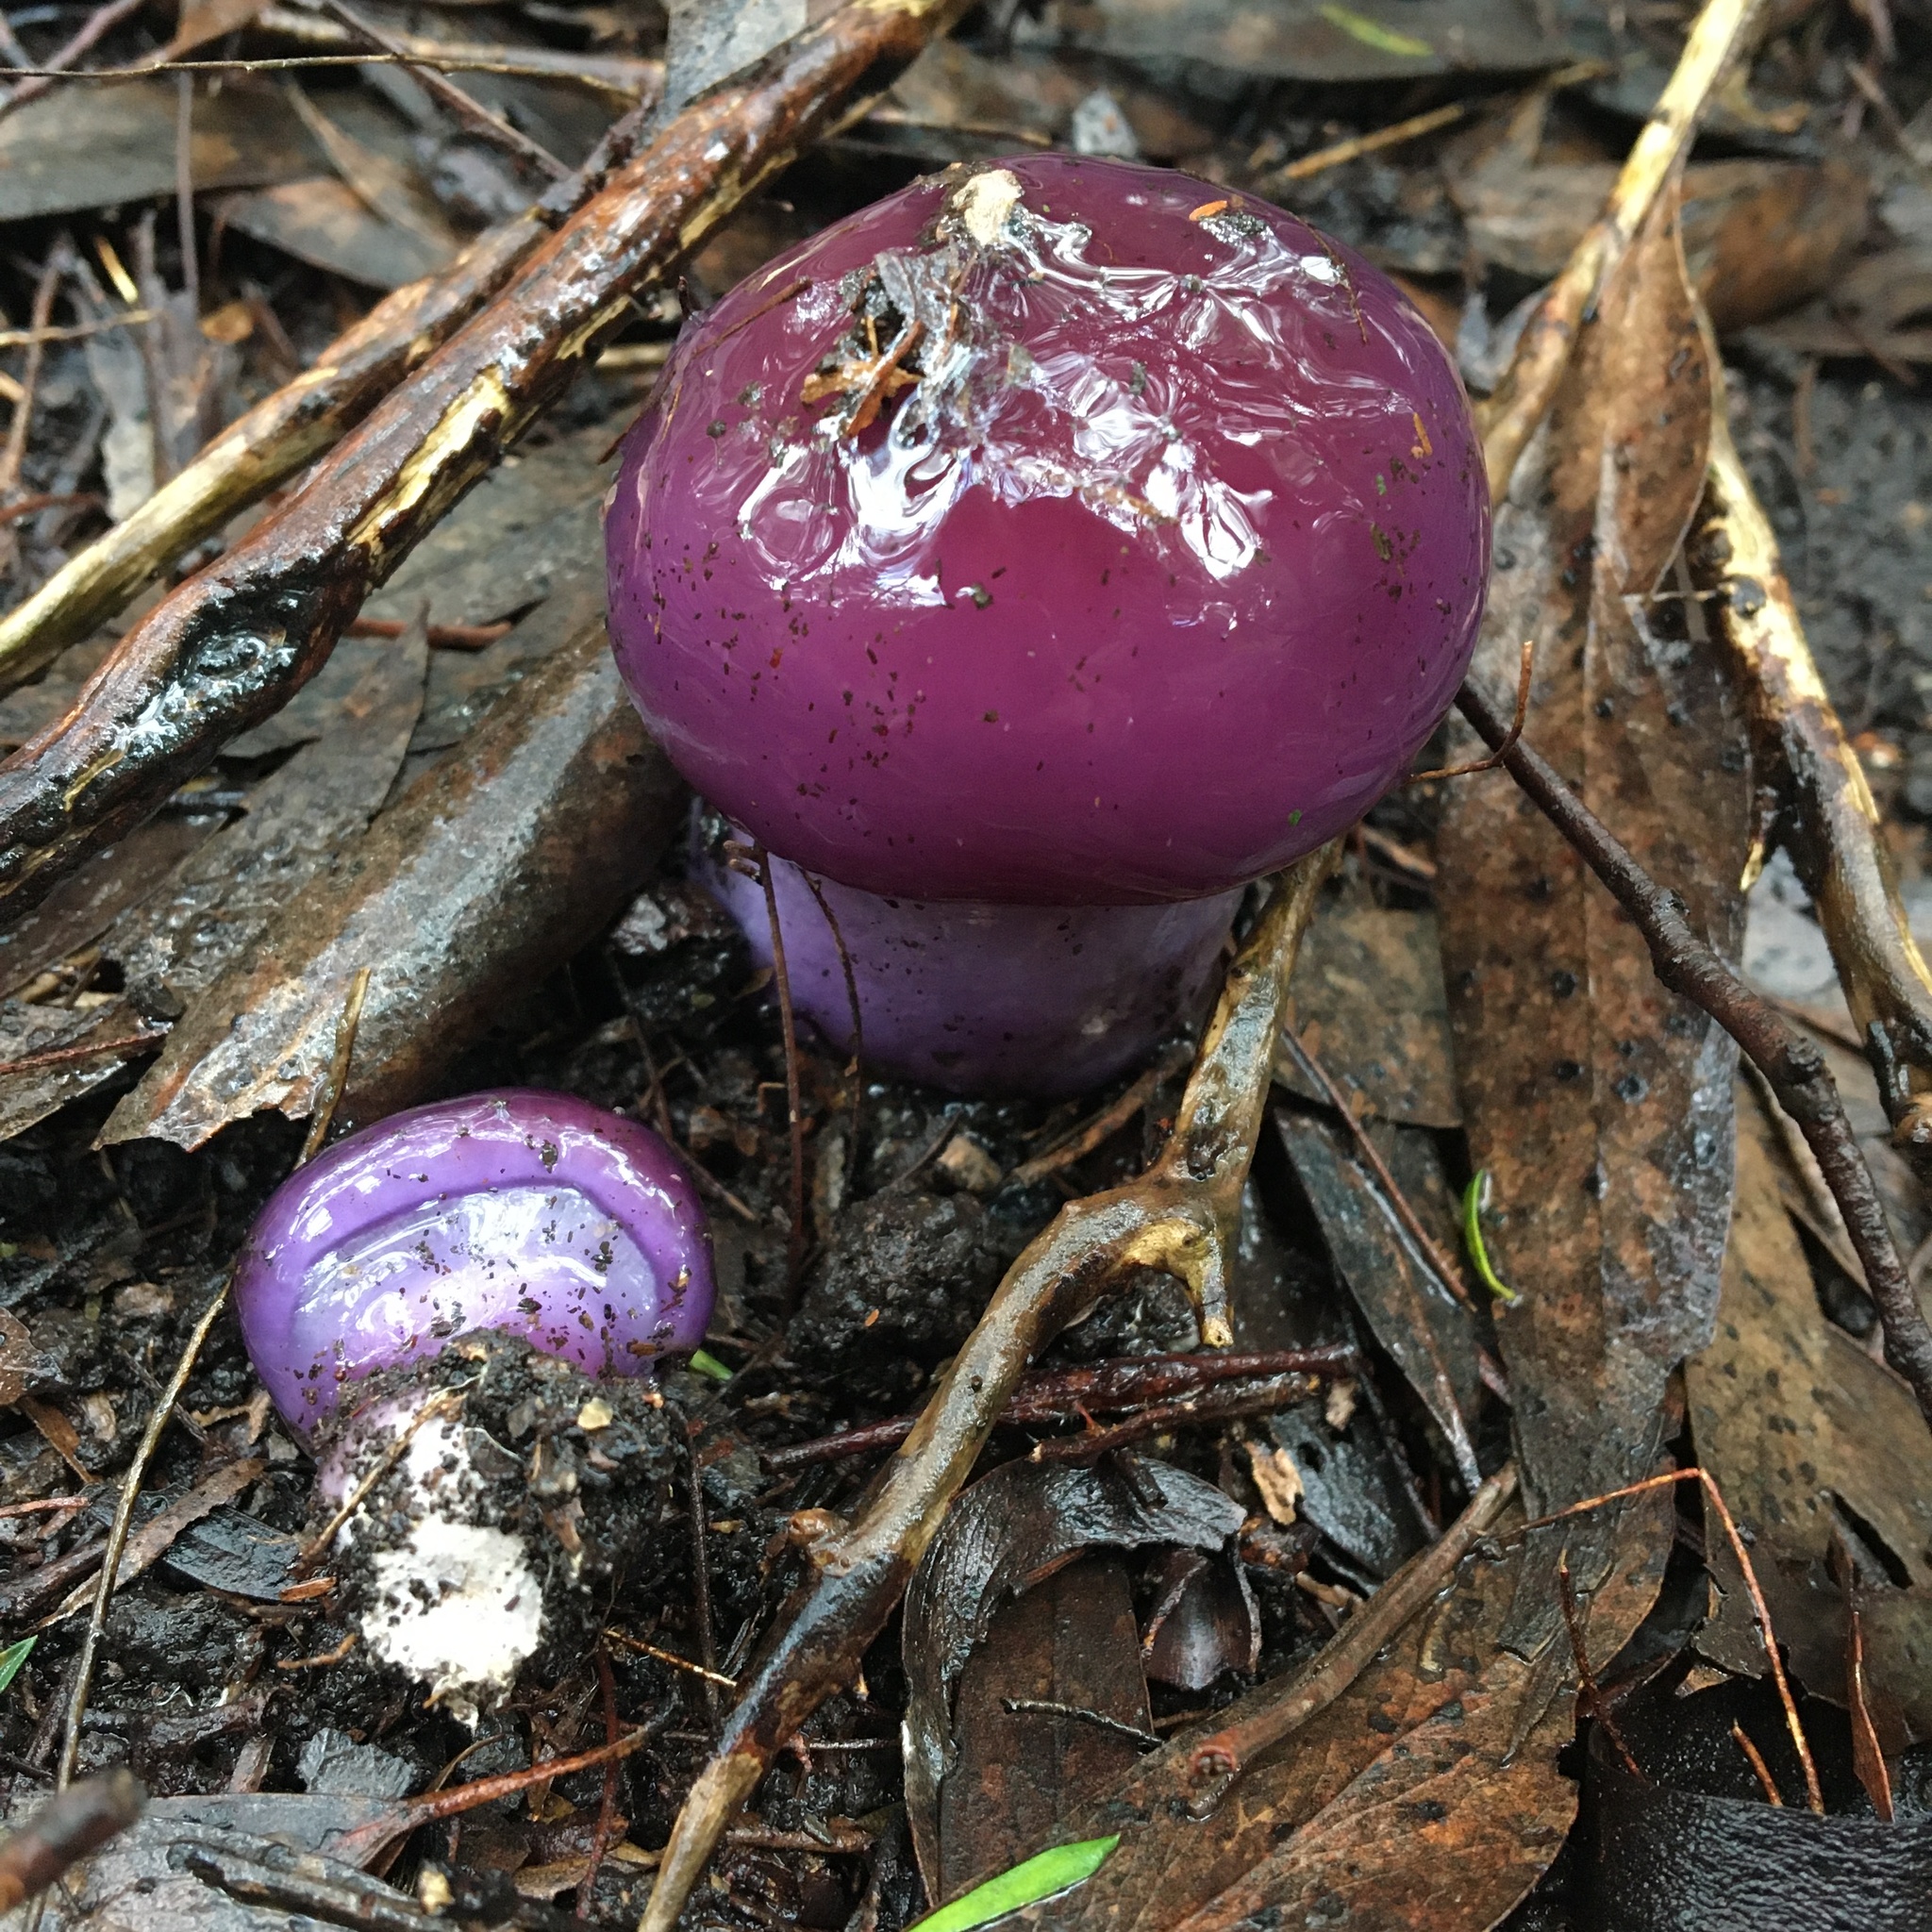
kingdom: Fungi
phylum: Basidiomycota
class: Agaricomycetes
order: Agaricales
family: Cortinariaceae
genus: Cortinarius
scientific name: Cortinarius archeri
